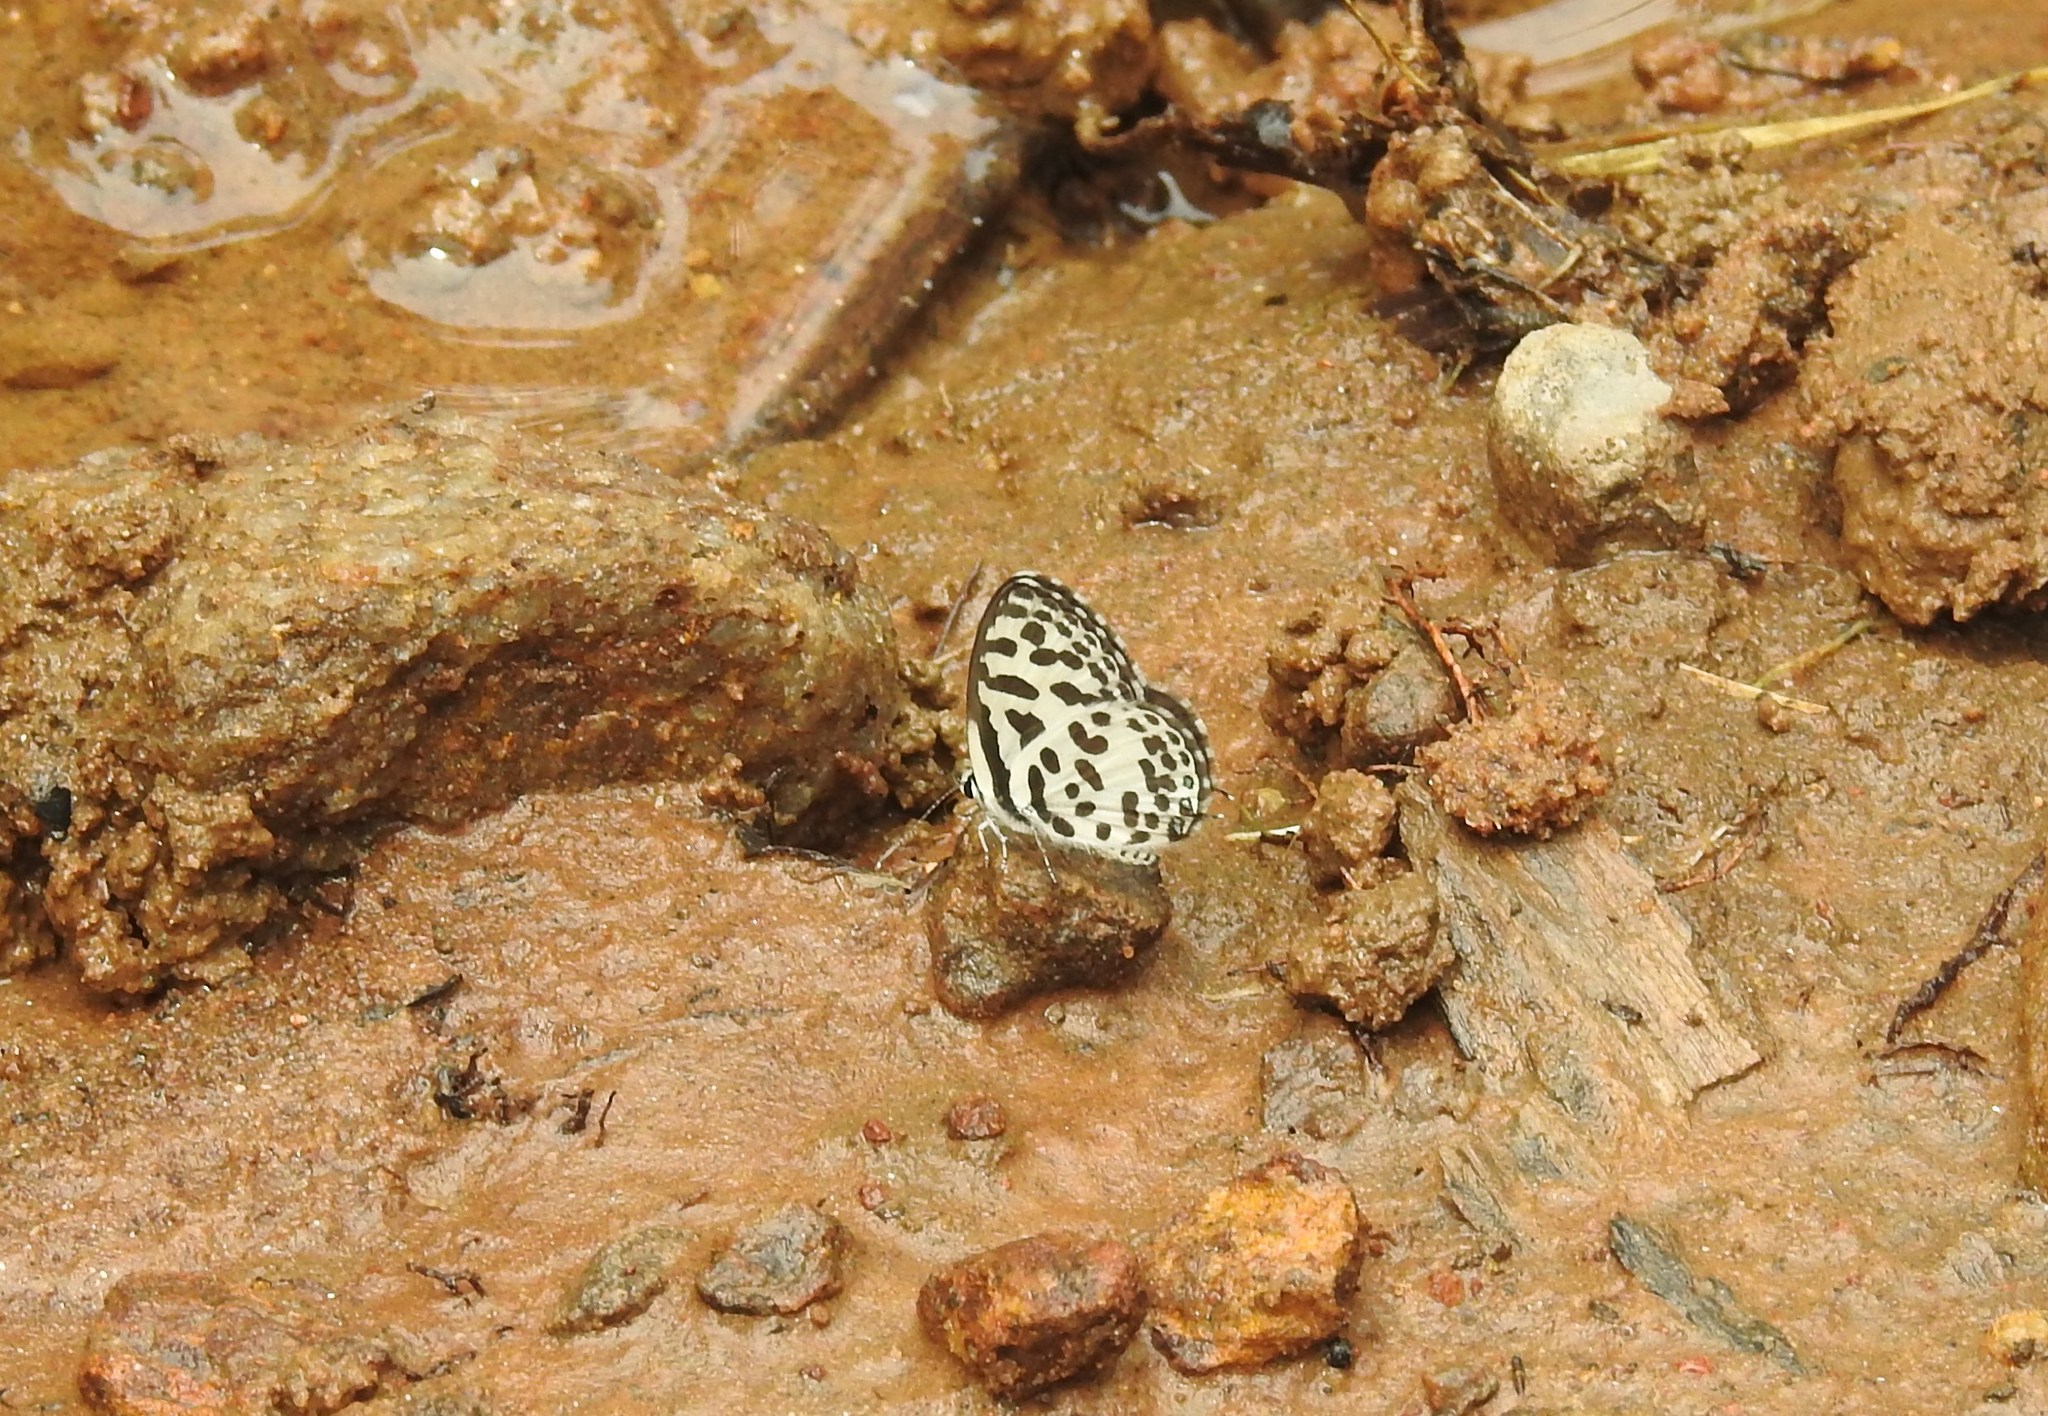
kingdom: Animalia
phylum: Arthropoda
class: Insecta
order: Lepidoptera
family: Lycaenidae
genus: Castalius
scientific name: Castalius rosimon
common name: Common pierrot
